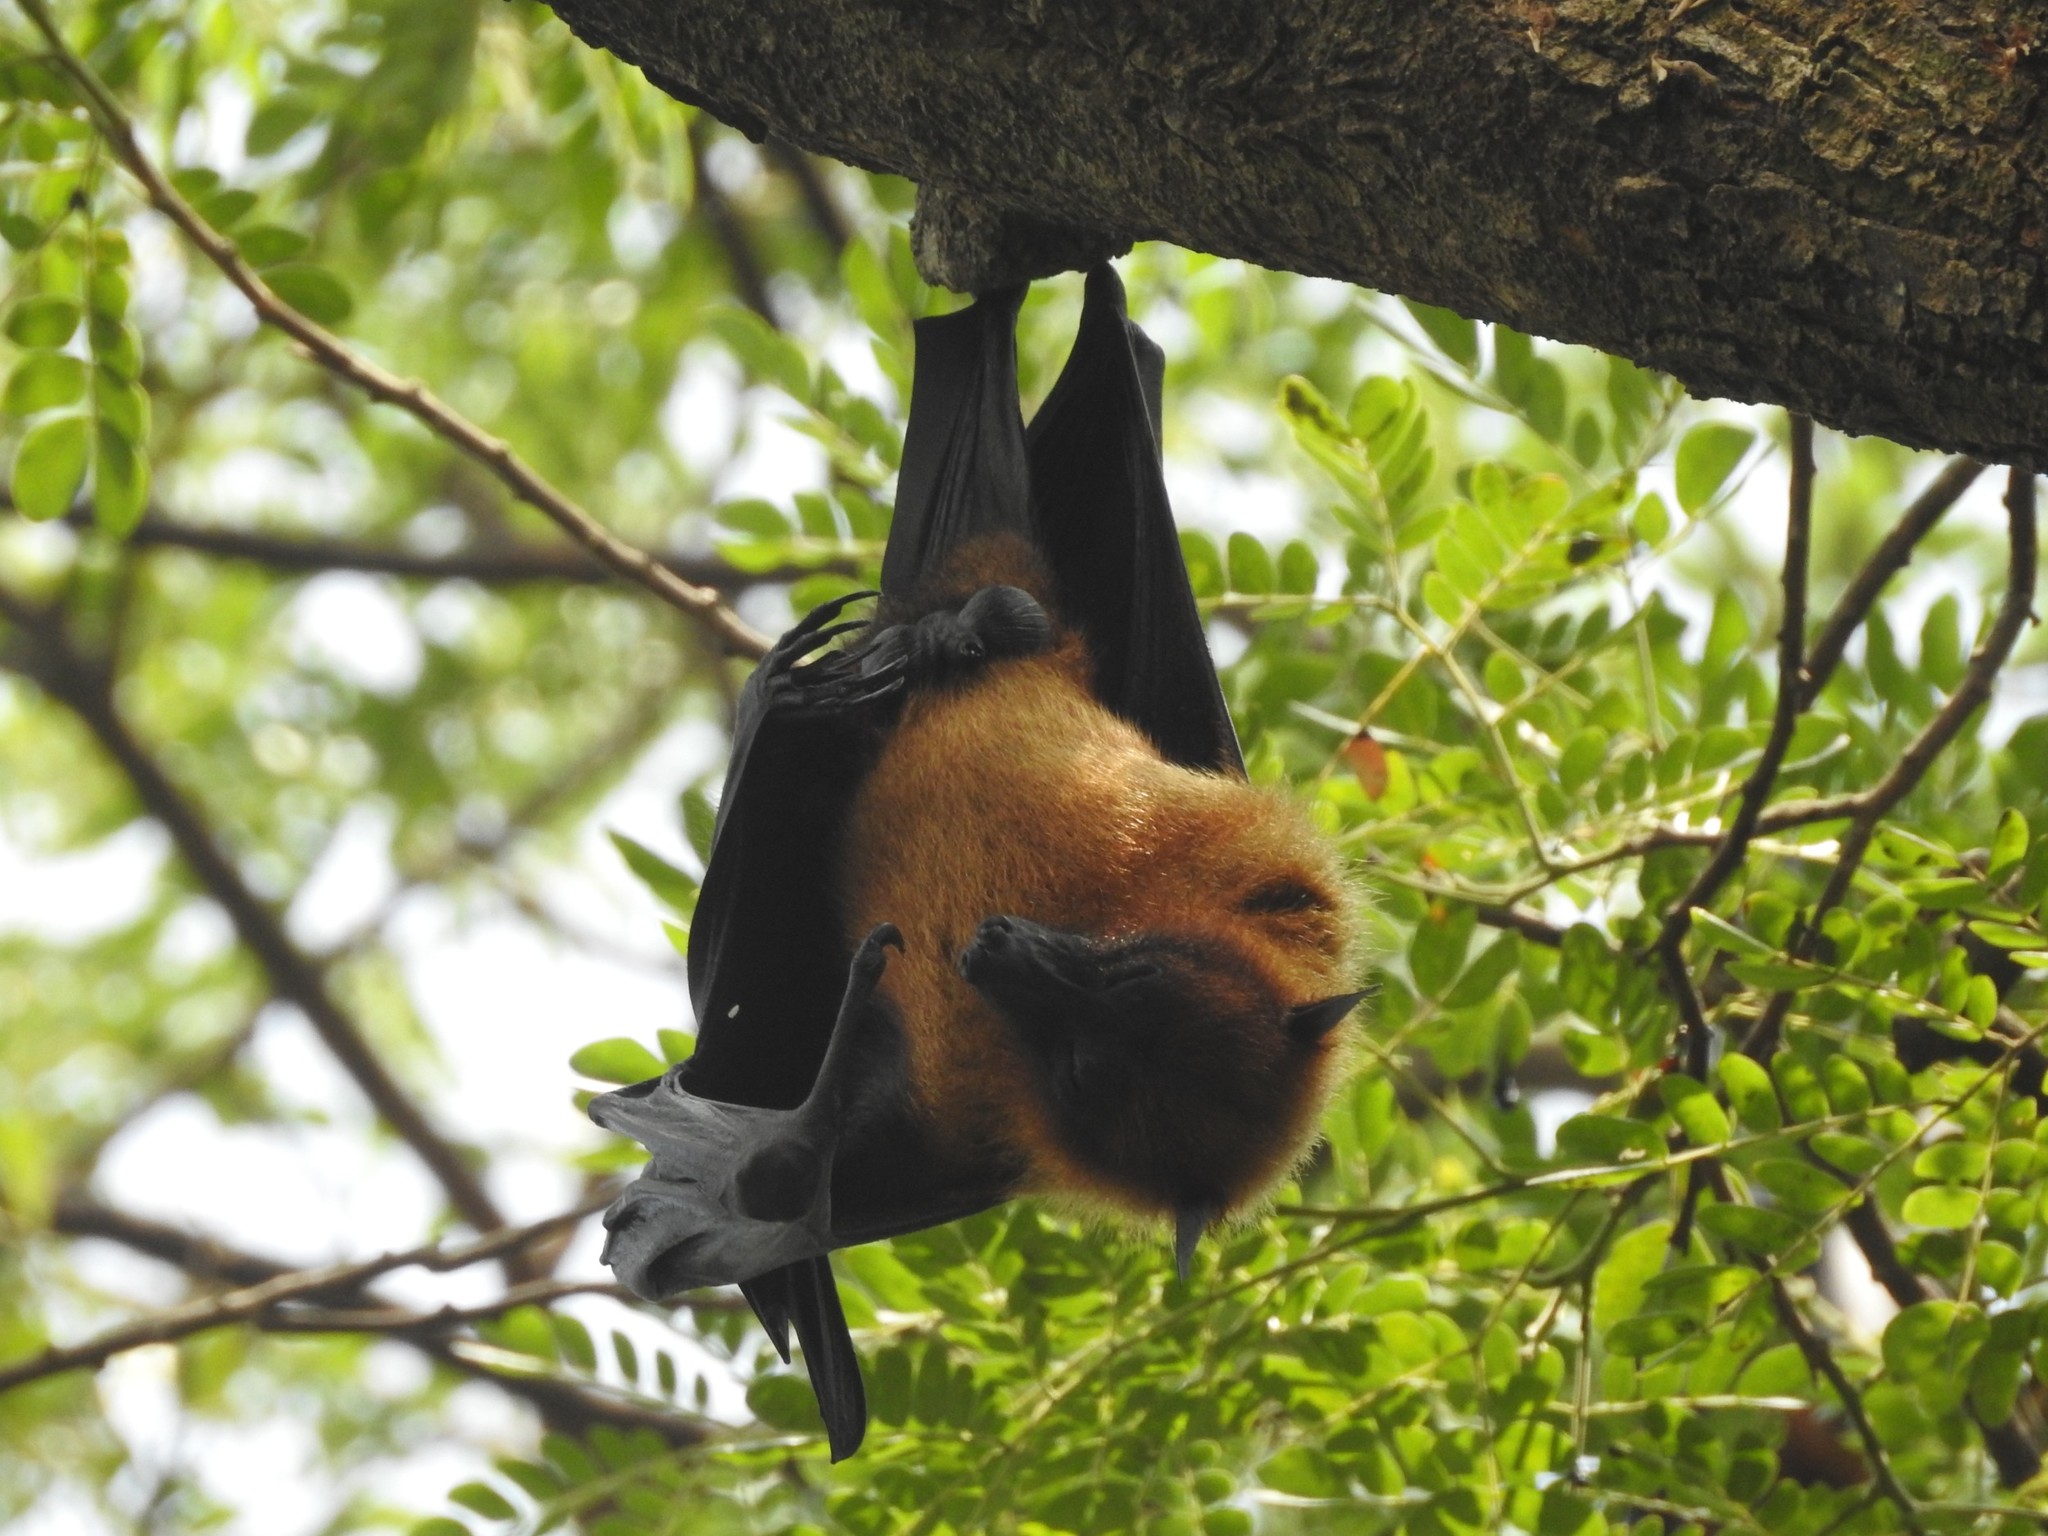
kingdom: Animalia
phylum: Chordata
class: Mammalia
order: Chiroptera
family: Pteropodidae
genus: Pteropus
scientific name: Pteropus vampyrus
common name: Large flying fox
